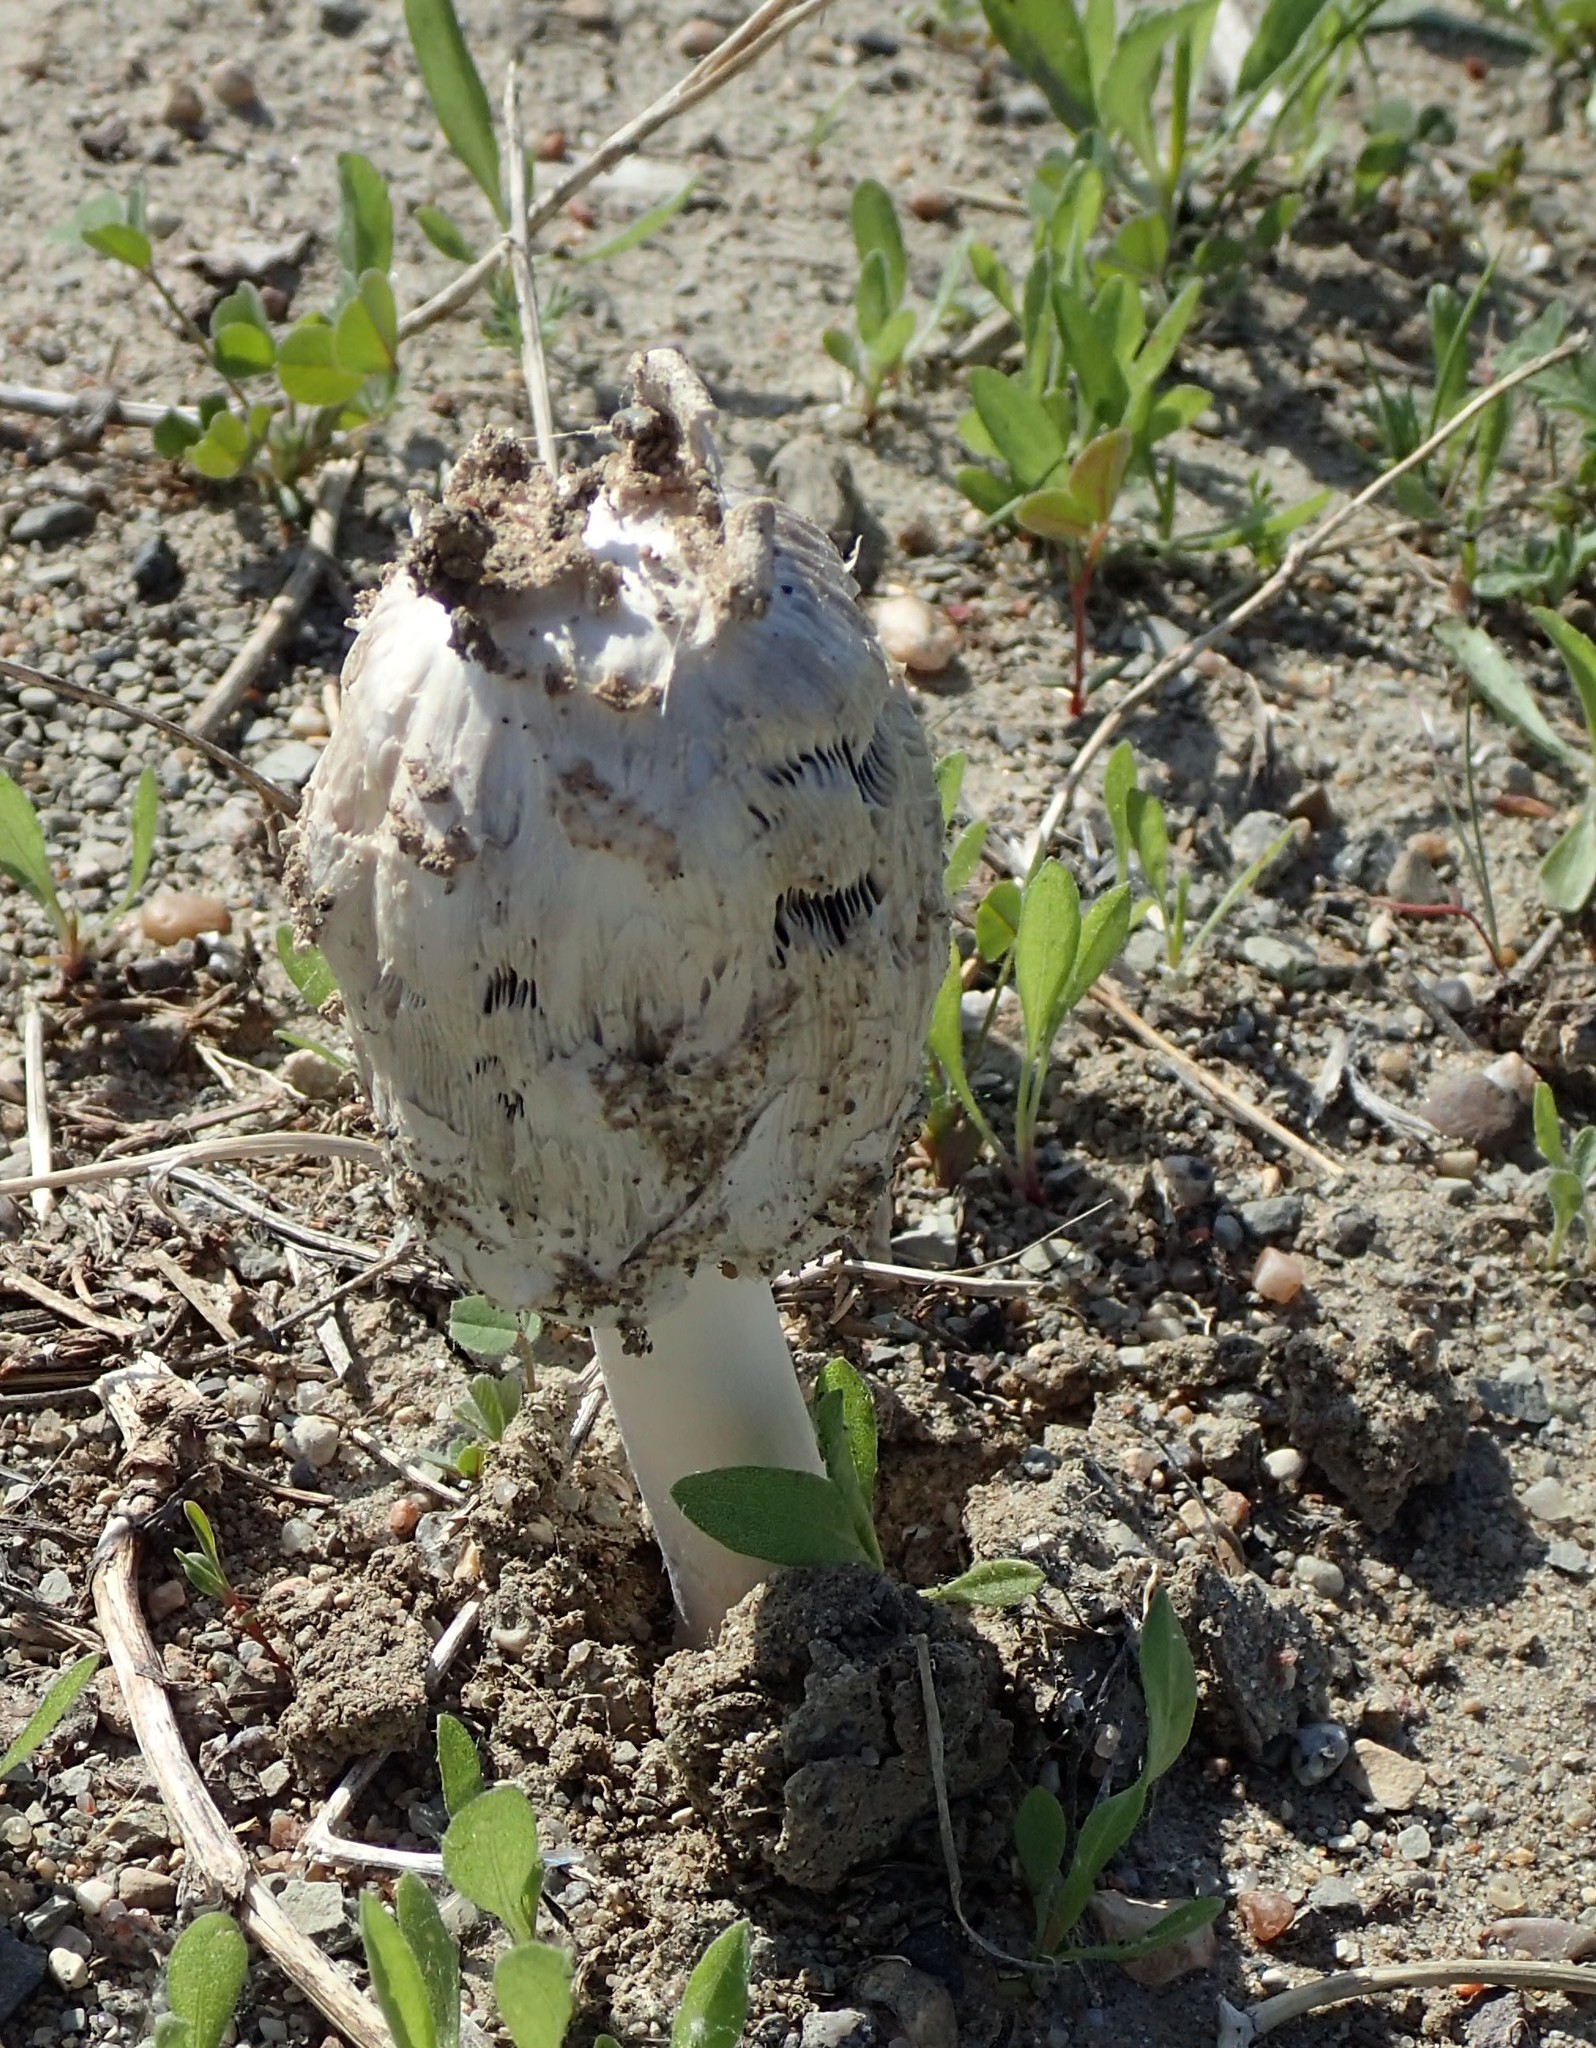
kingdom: Fungi
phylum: Basidiomycota
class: Agaricomycetes
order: Agaricales
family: Agaricaceae
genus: Coprinus
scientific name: Coprinus comatus
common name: Lawyer's wig
